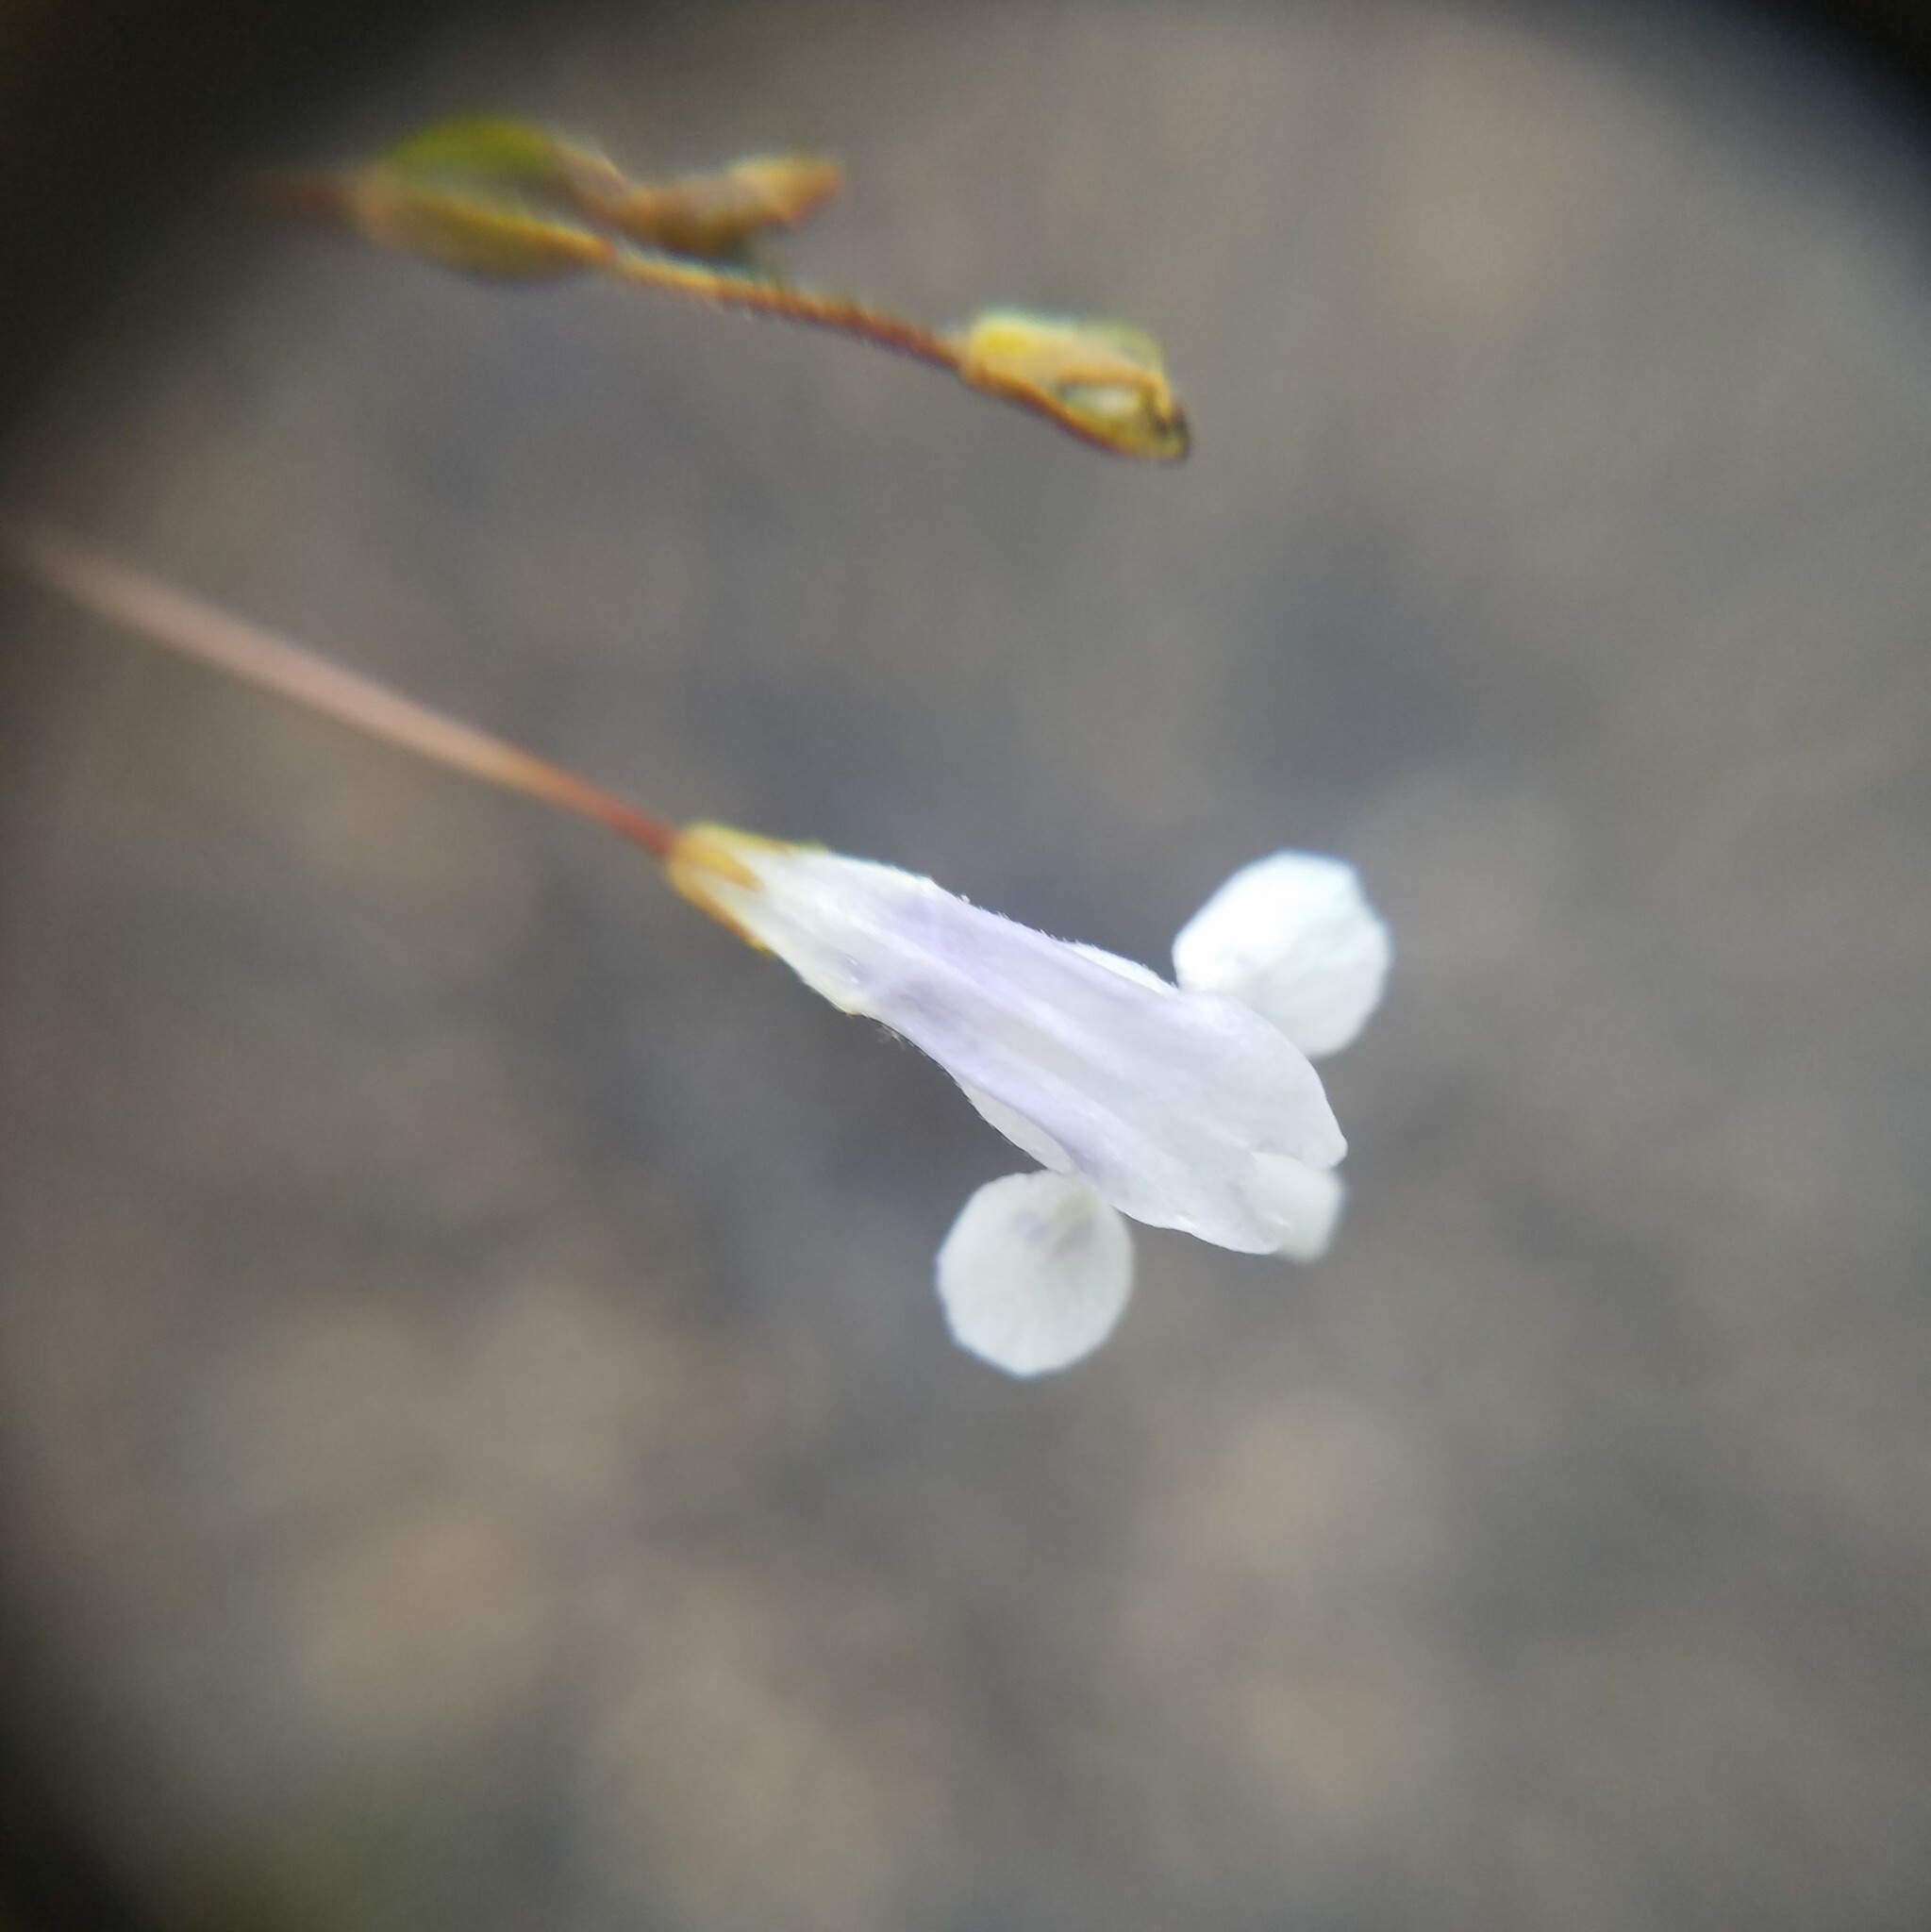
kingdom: Plantae
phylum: Tracheophyta
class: Magnoliopsida
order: Lamiales
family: Linderniaceae
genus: Lindernia
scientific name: Lindernia monticola
